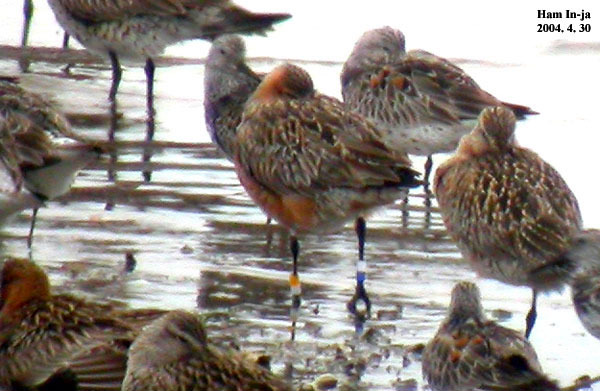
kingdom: Animalia
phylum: Chordata
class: Aves
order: Charadriiformes
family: Scolopacidae
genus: Limosa
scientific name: Limosa lapponica
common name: Bar-tailed godwit
